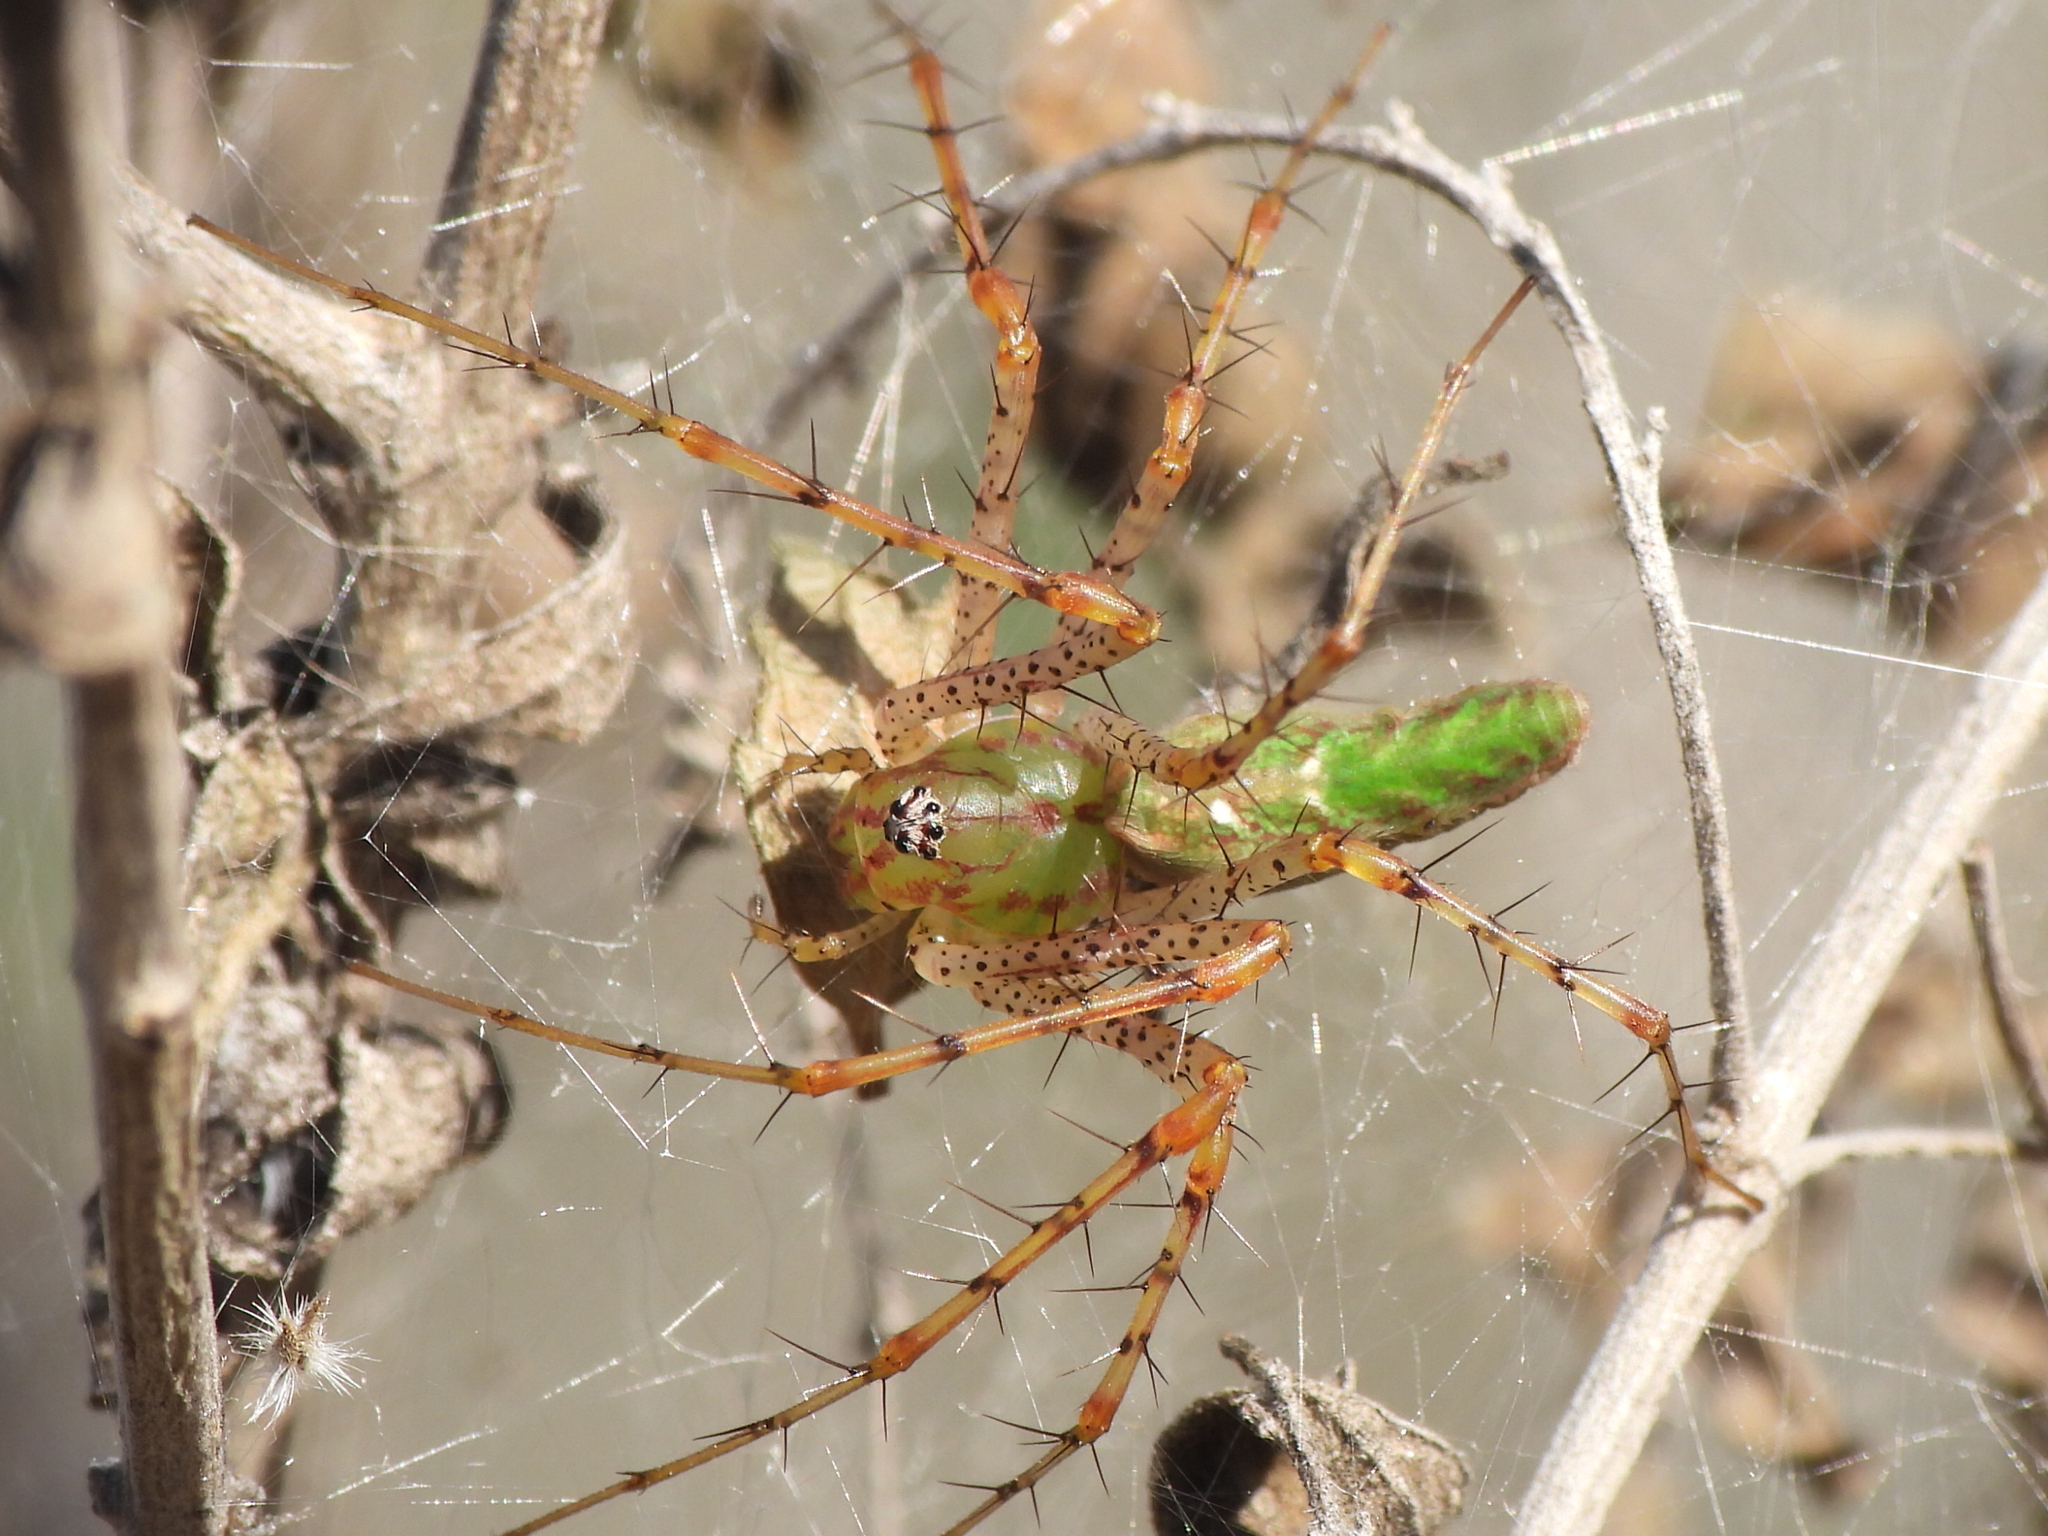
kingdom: Animalia
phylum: Arthropoda
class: Arachnida
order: Araneae
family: Oxyopidae
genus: Peucetia
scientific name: Peucetia viridans
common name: Lynx spiders
